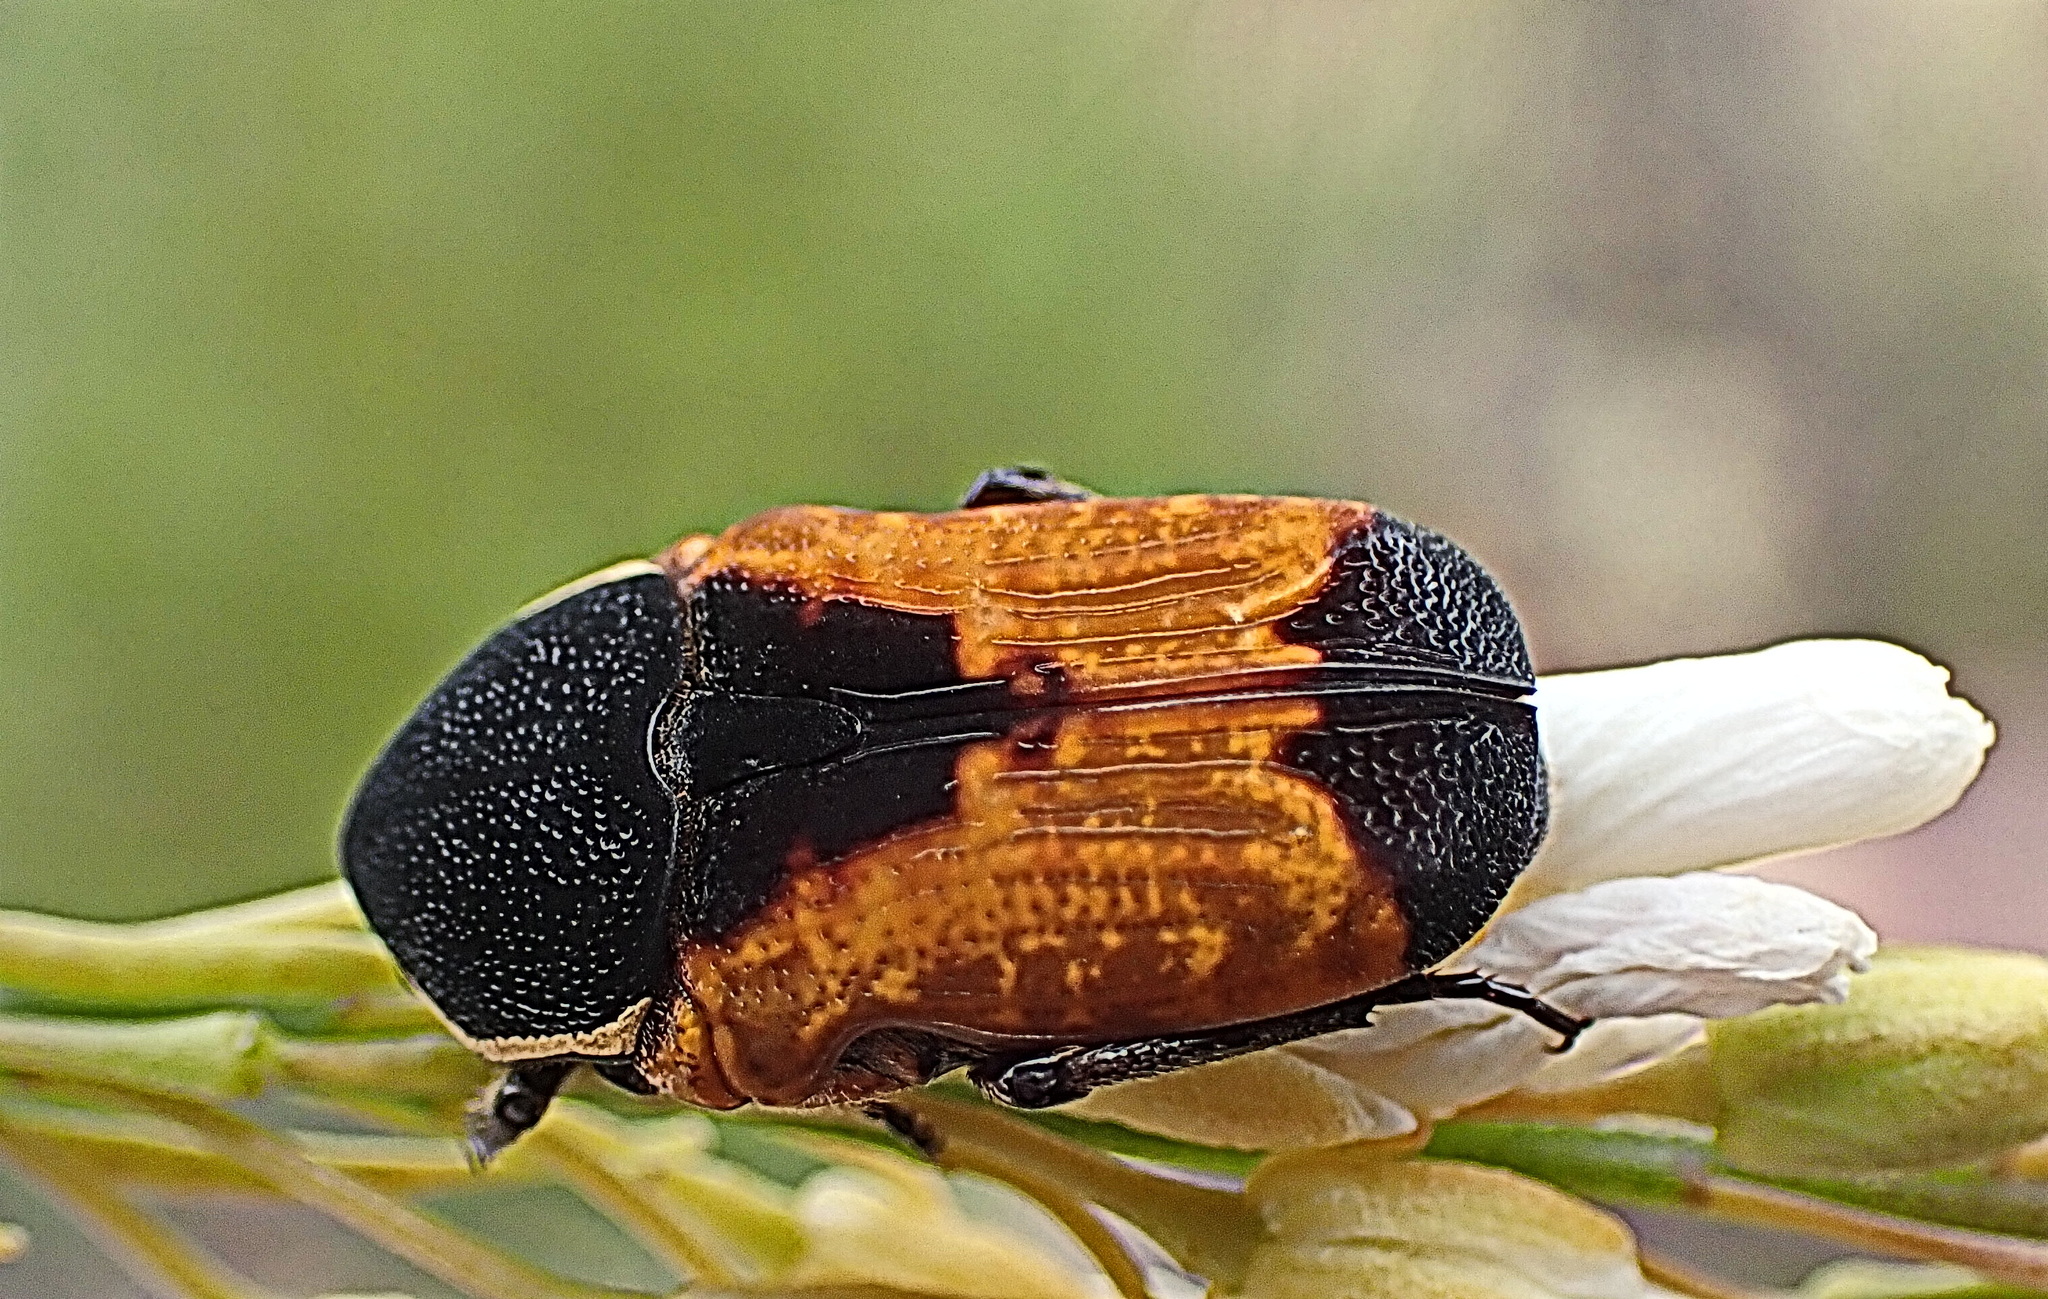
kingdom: Animalia
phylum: Arthropoda
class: Insecta
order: Coleoptera
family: Scarabaeidae
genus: Phonotaenia
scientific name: Phonotaenia balteata
